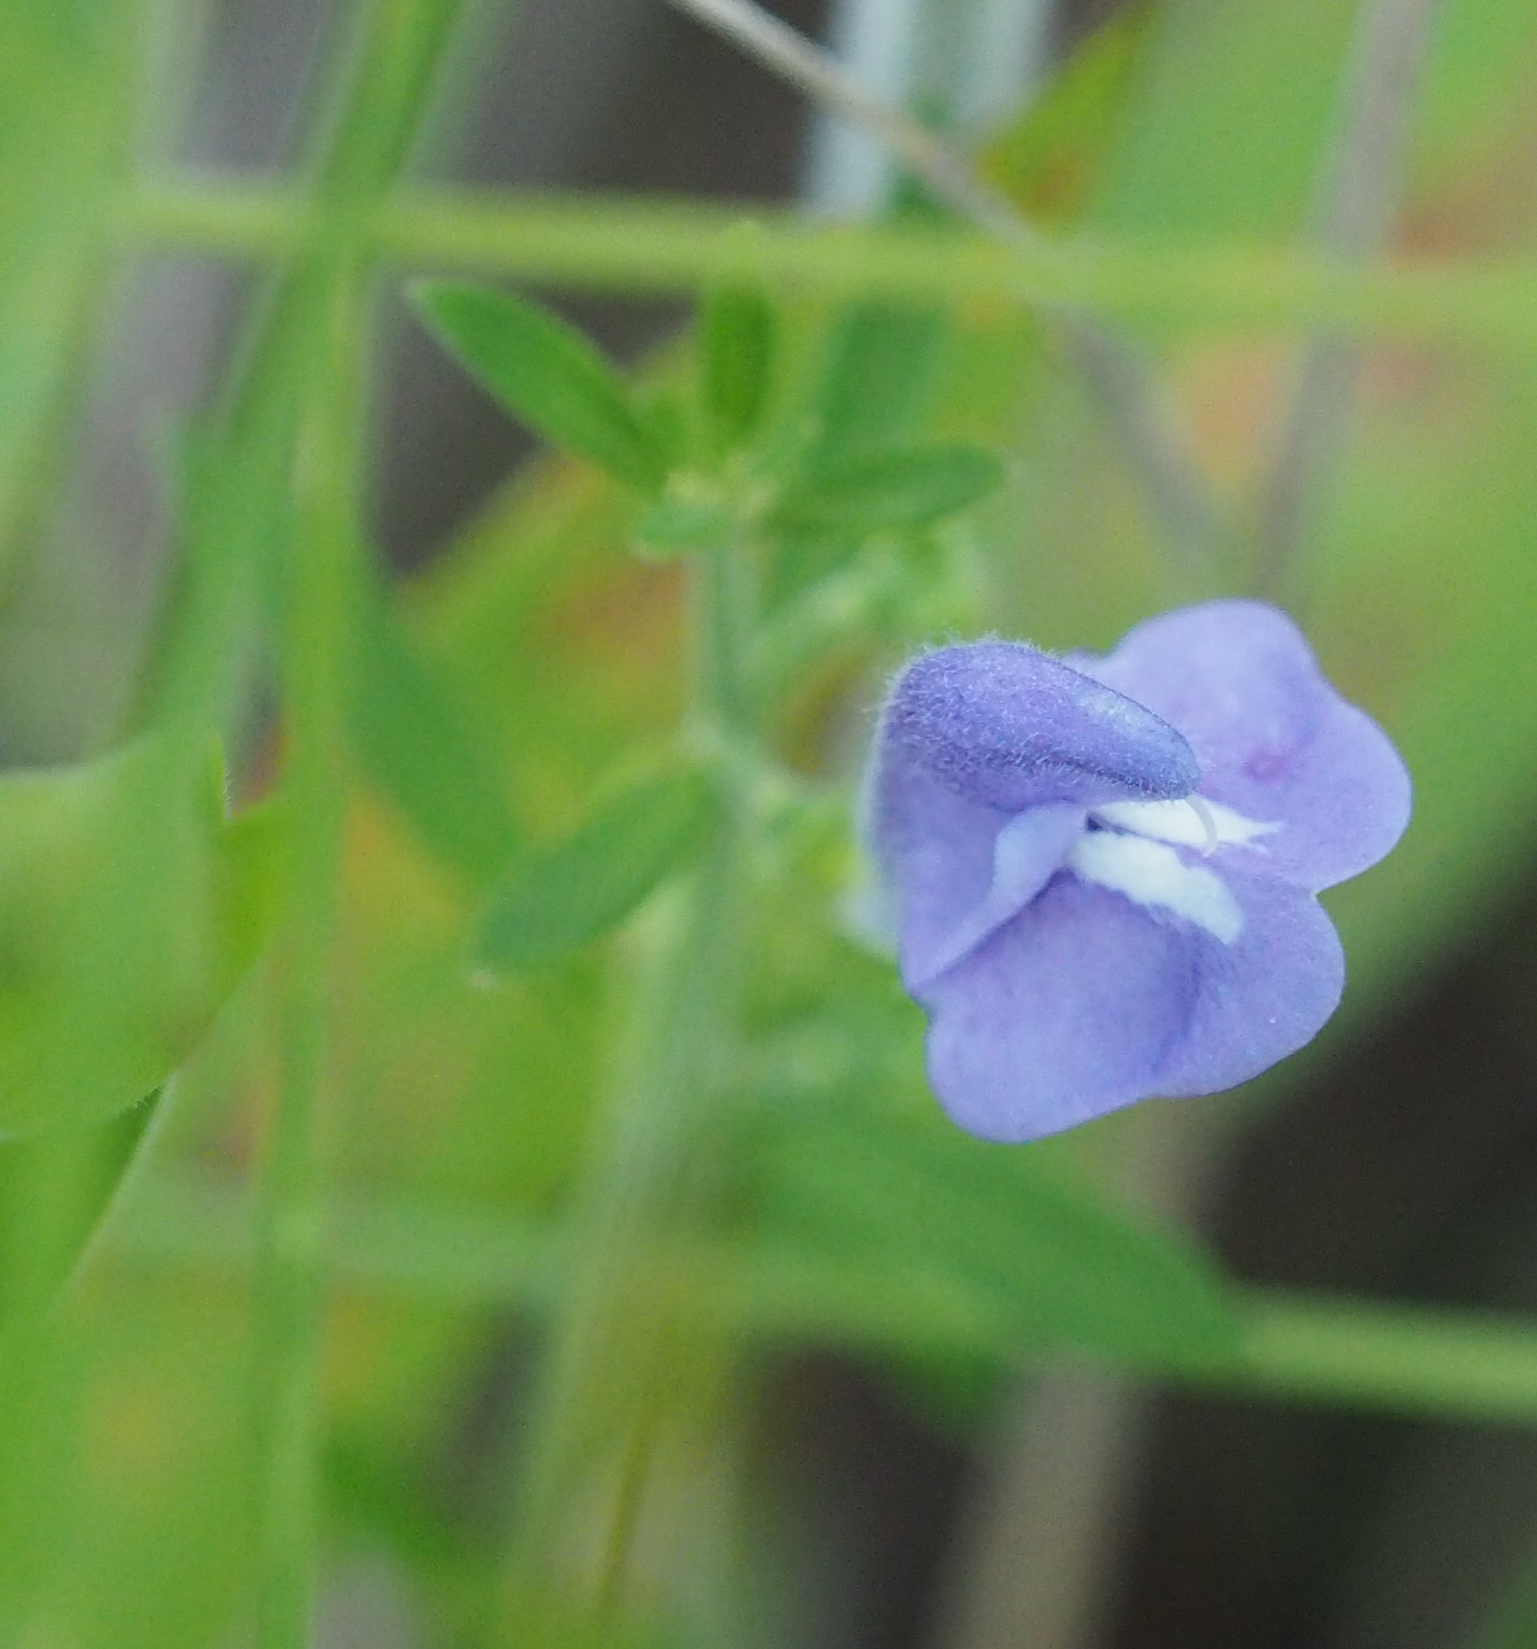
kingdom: Plantae
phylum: Tracheophyta
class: Magnoliopsida
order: Lamiales
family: Lamiaceae
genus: Scutellaria
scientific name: Scutellaria integrifolia
